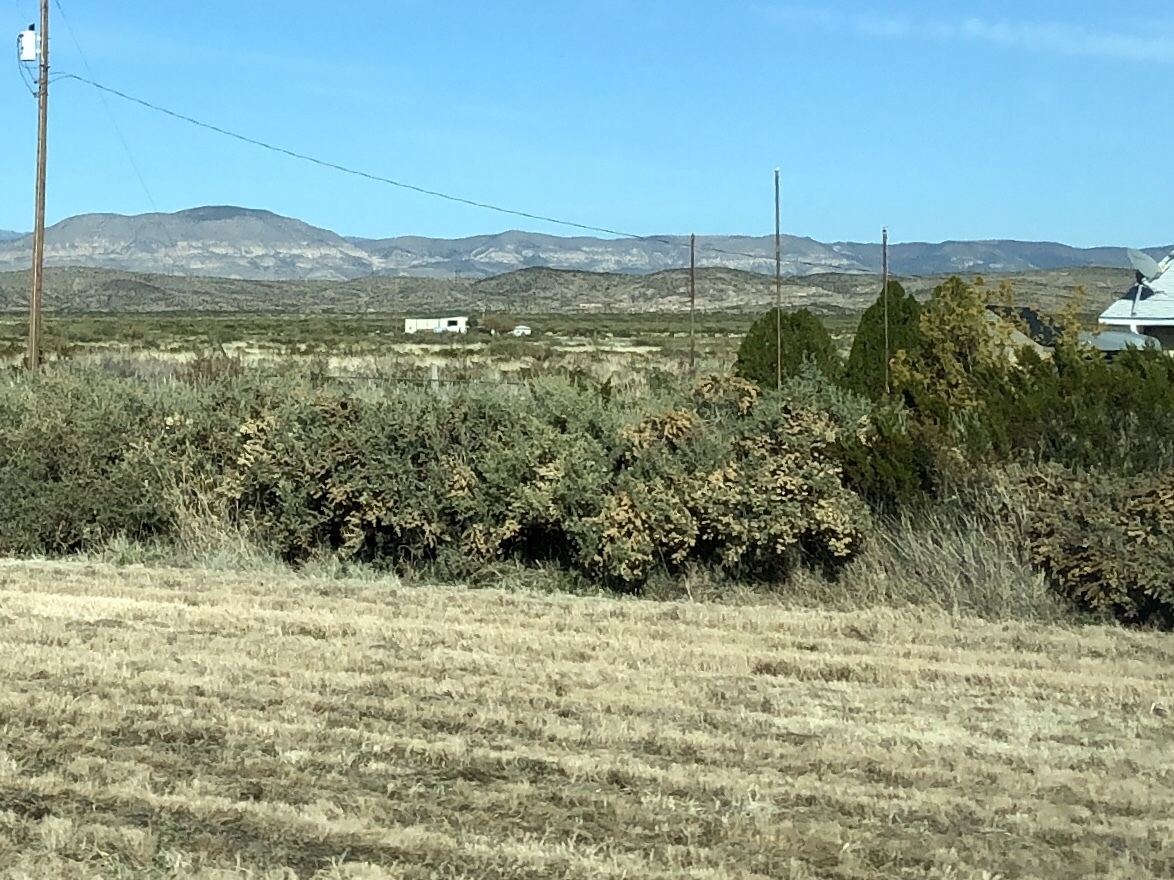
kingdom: Plantae
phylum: Tracheophyta
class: Magnoliopsida
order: Caryophyllales
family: Amaranthaceae
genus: Atriplex
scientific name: Atriplex canescens
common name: Four-wing saltbush
